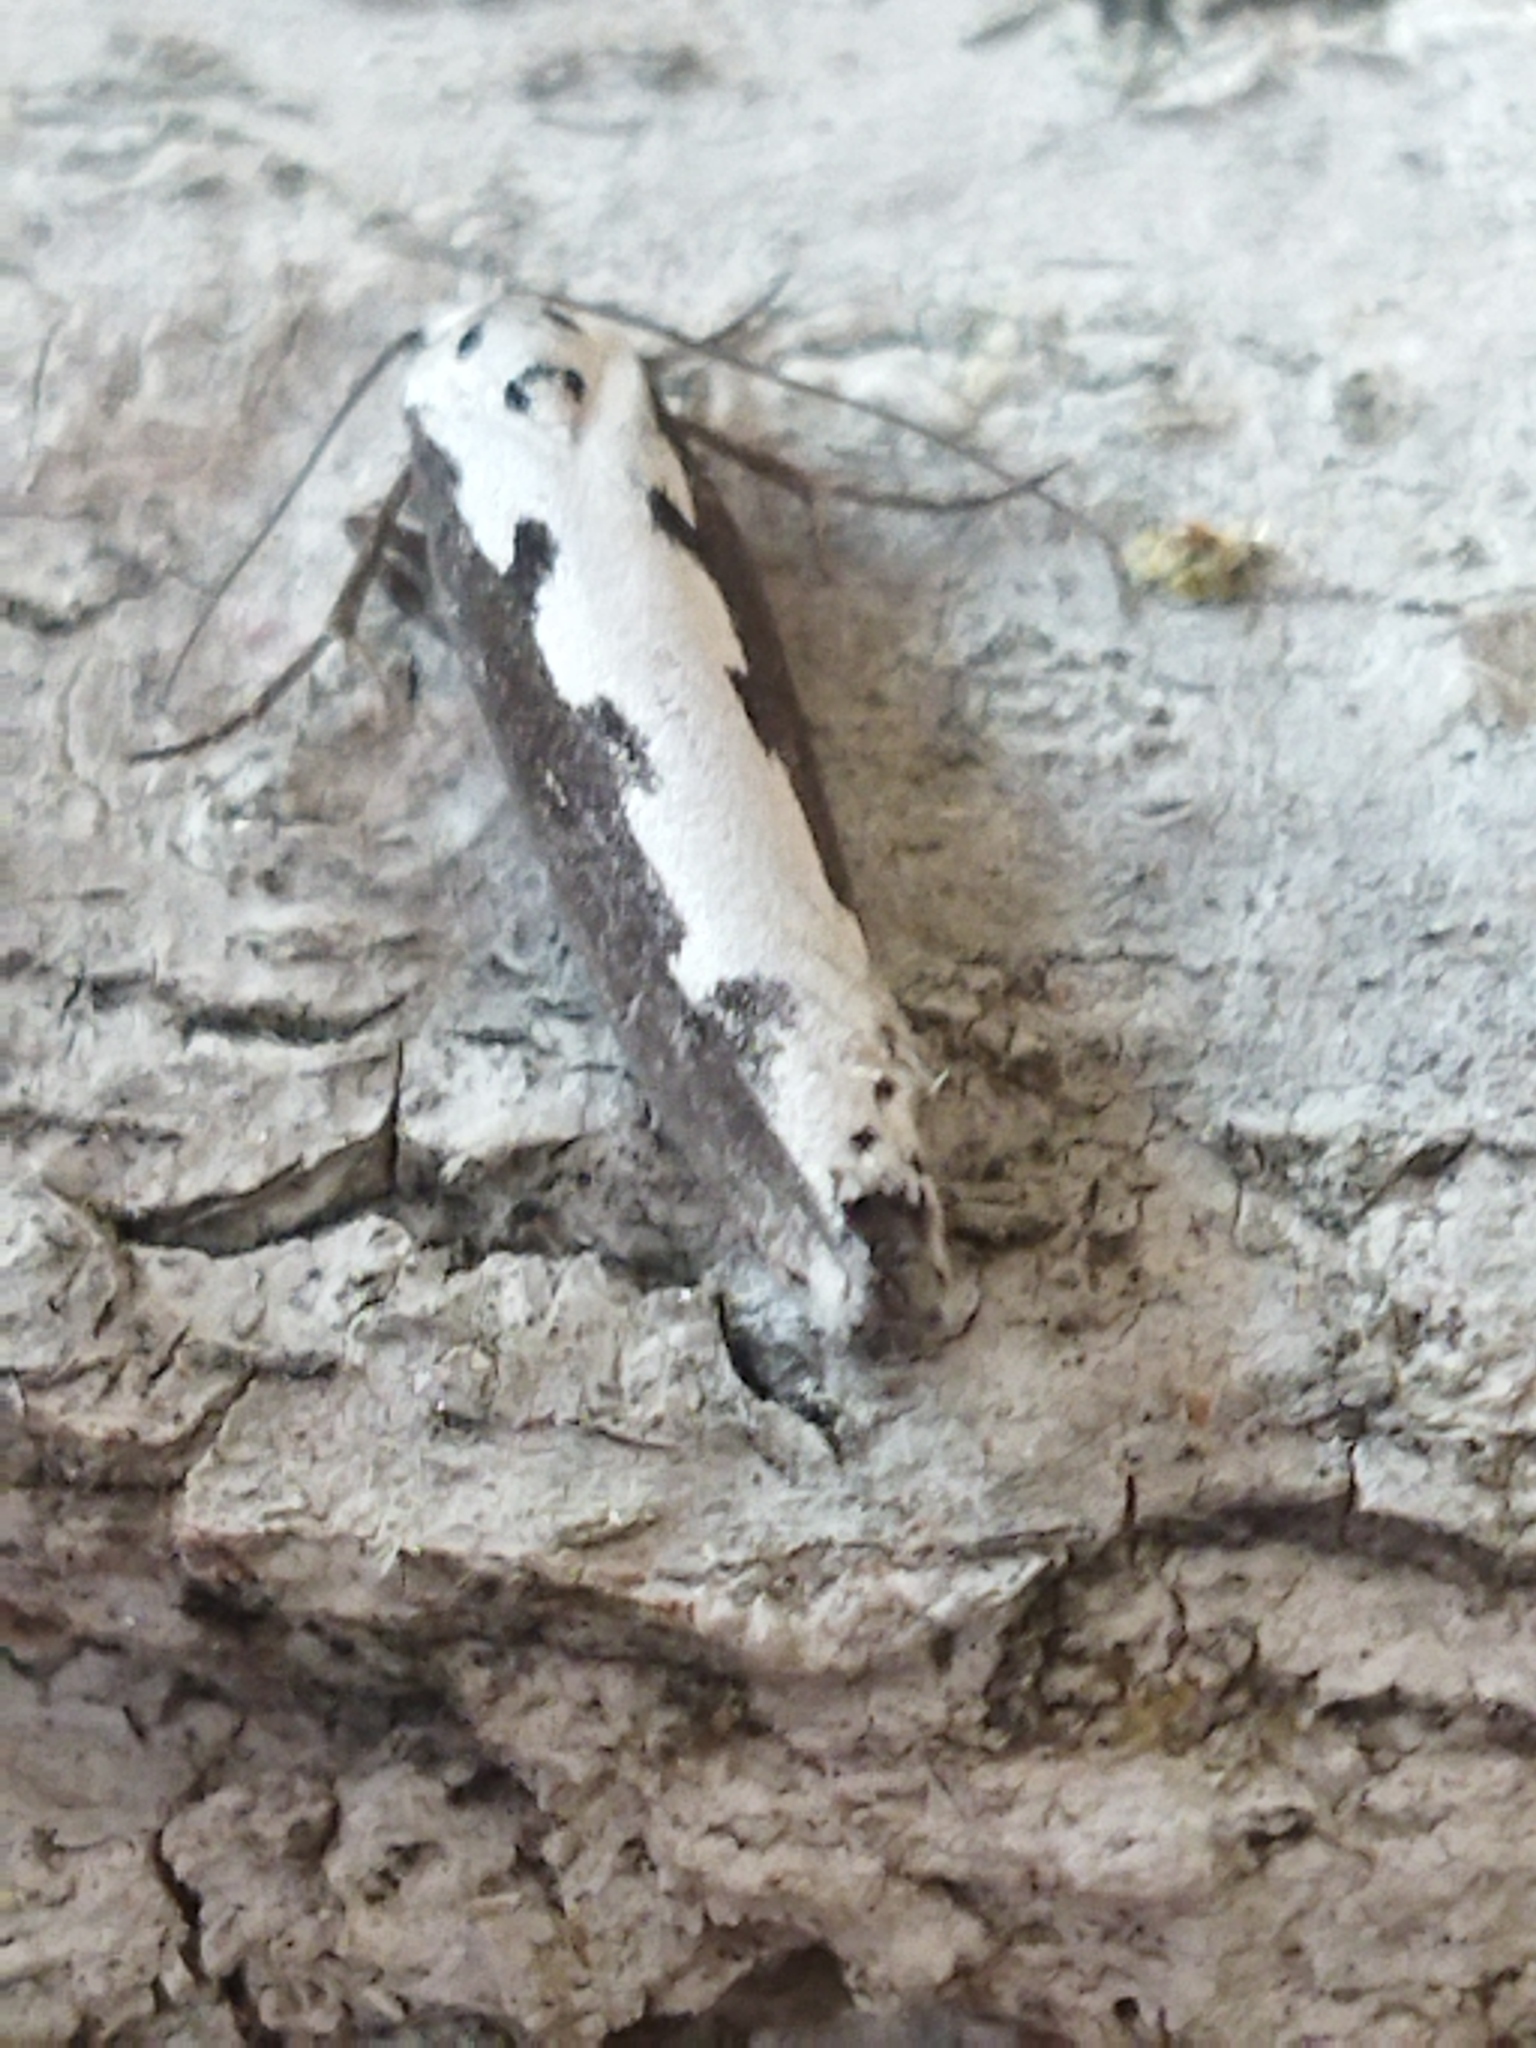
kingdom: Animalia
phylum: Arthropoda
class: Insecta
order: Lepidoptera
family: Ethmiidae
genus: Ethmia
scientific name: Ethmia bipunctella
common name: Bordered ermel
